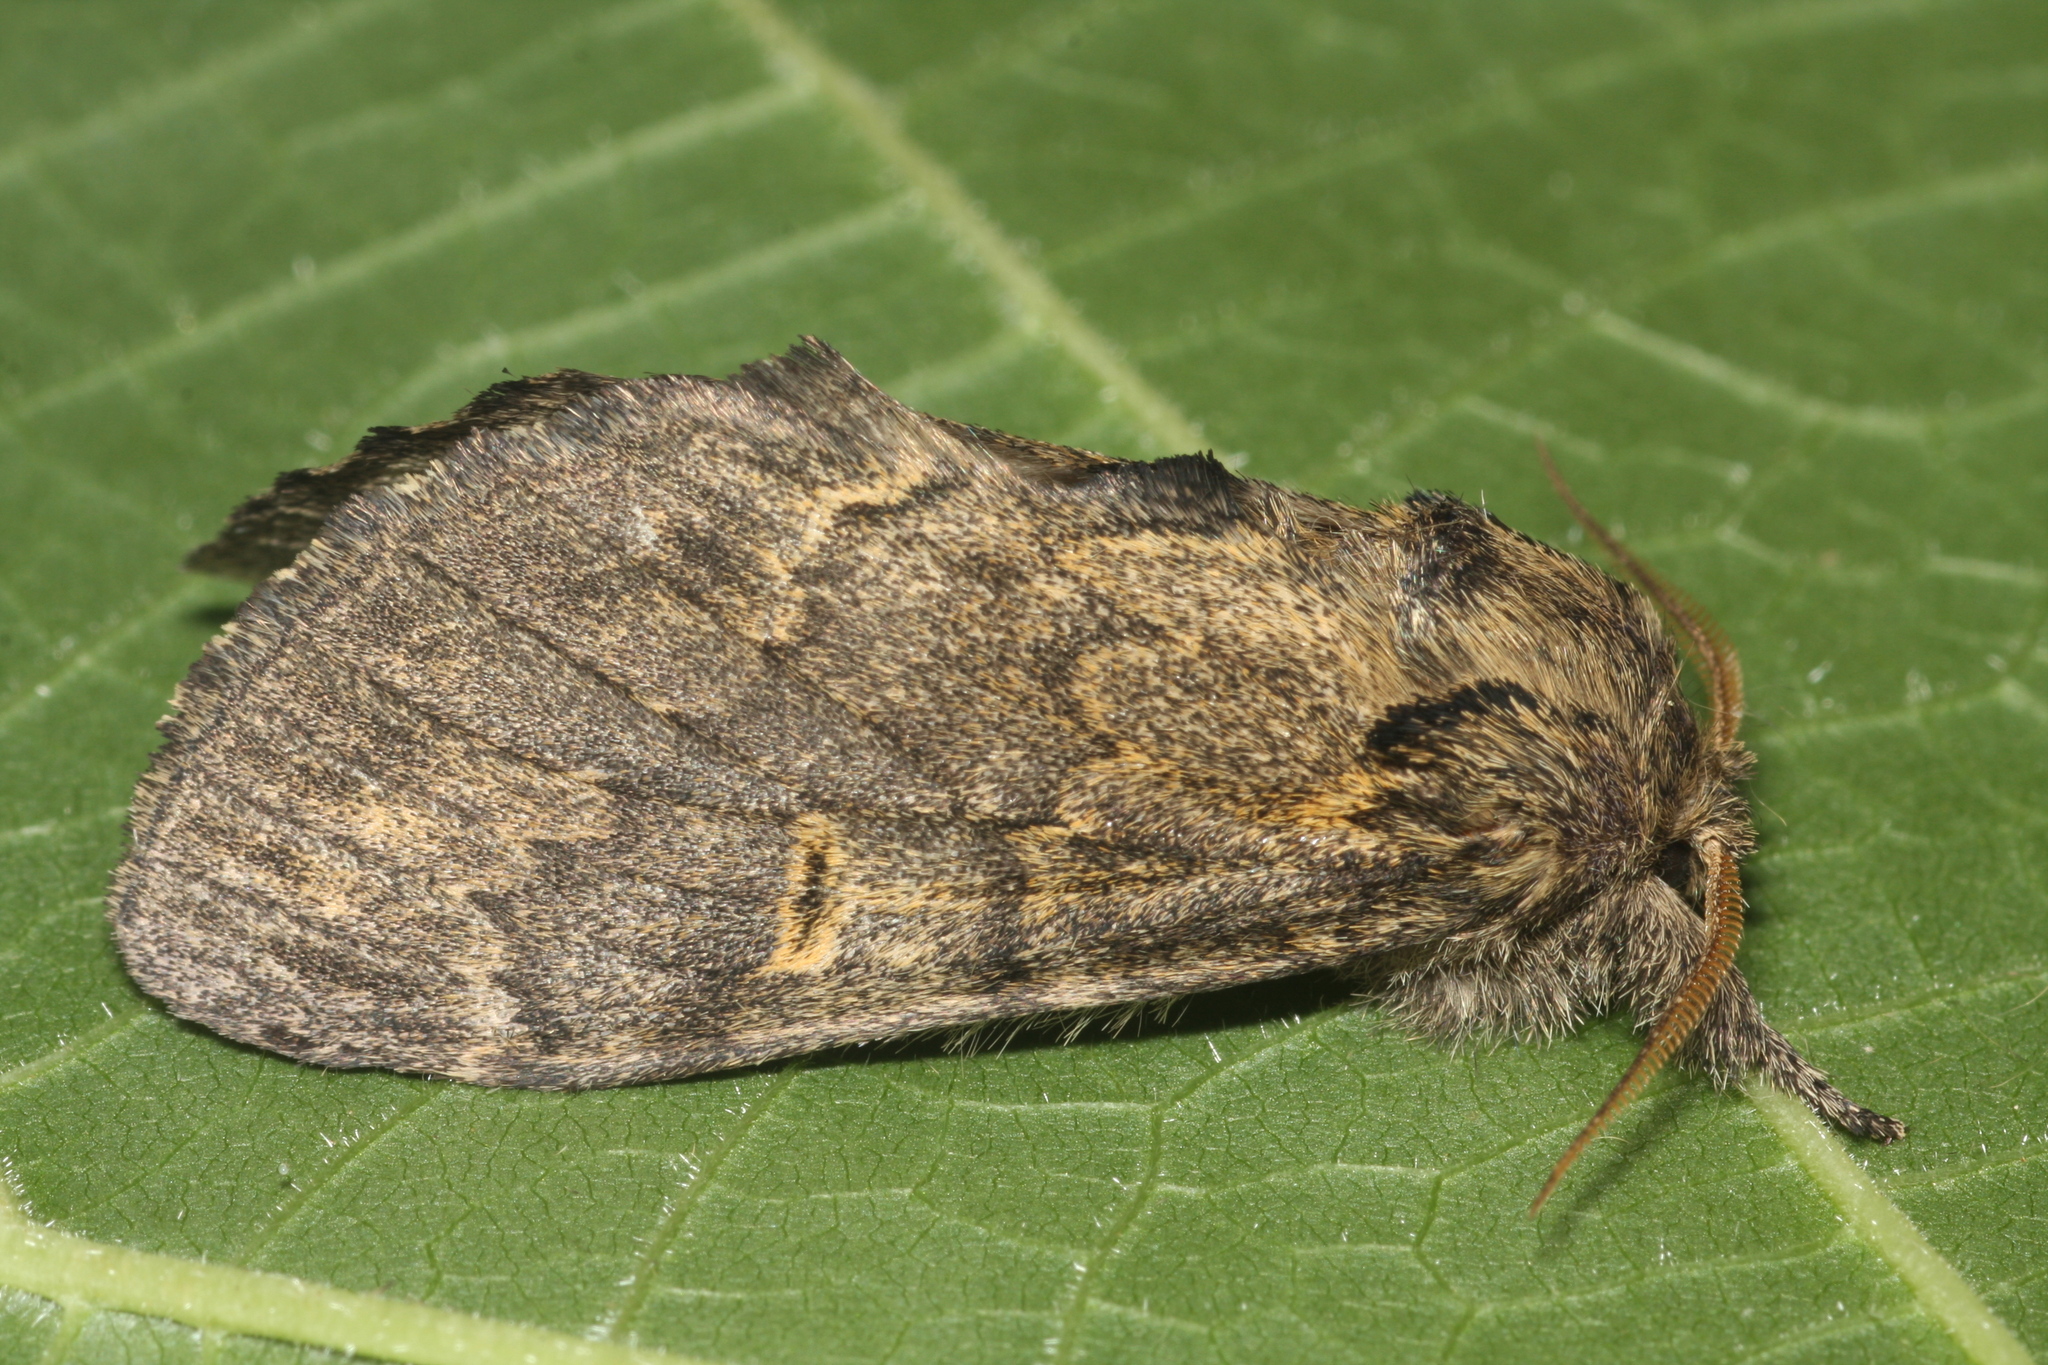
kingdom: Animalia
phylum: Arthropoda
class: Insecta
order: Lepidoptera
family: Notodontidae
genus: Notodonta
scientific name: Notodonta torva
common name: Large dark prominent
